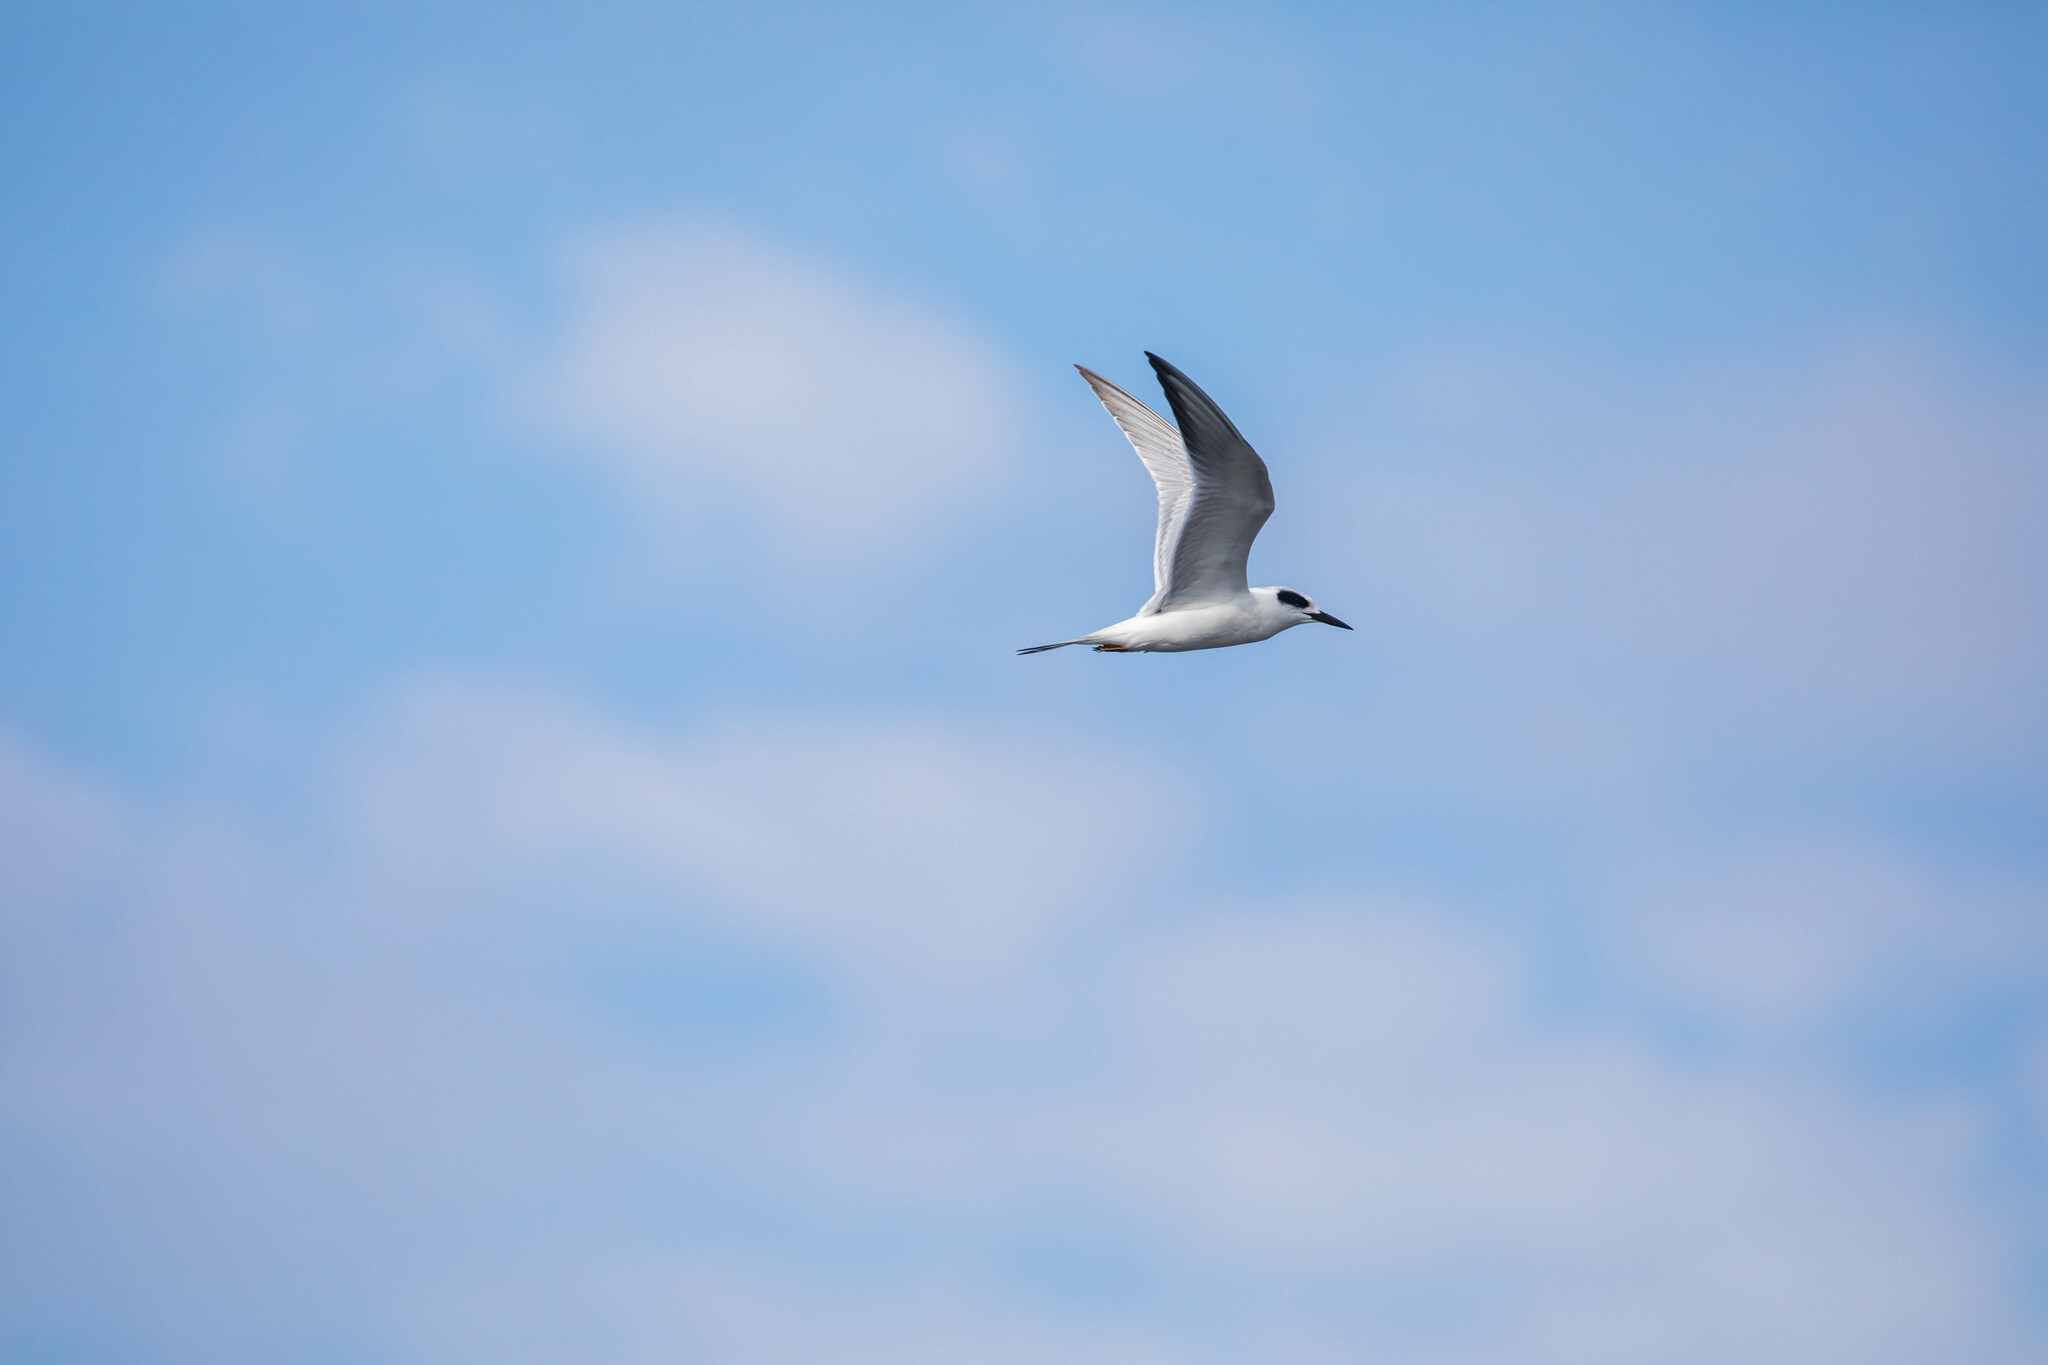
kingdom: Animalia
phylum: Chordata
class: Aves
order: Charadriiformes
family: Laridae
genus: Sterna
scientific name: Sterna forsteri
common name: Forster's tern
